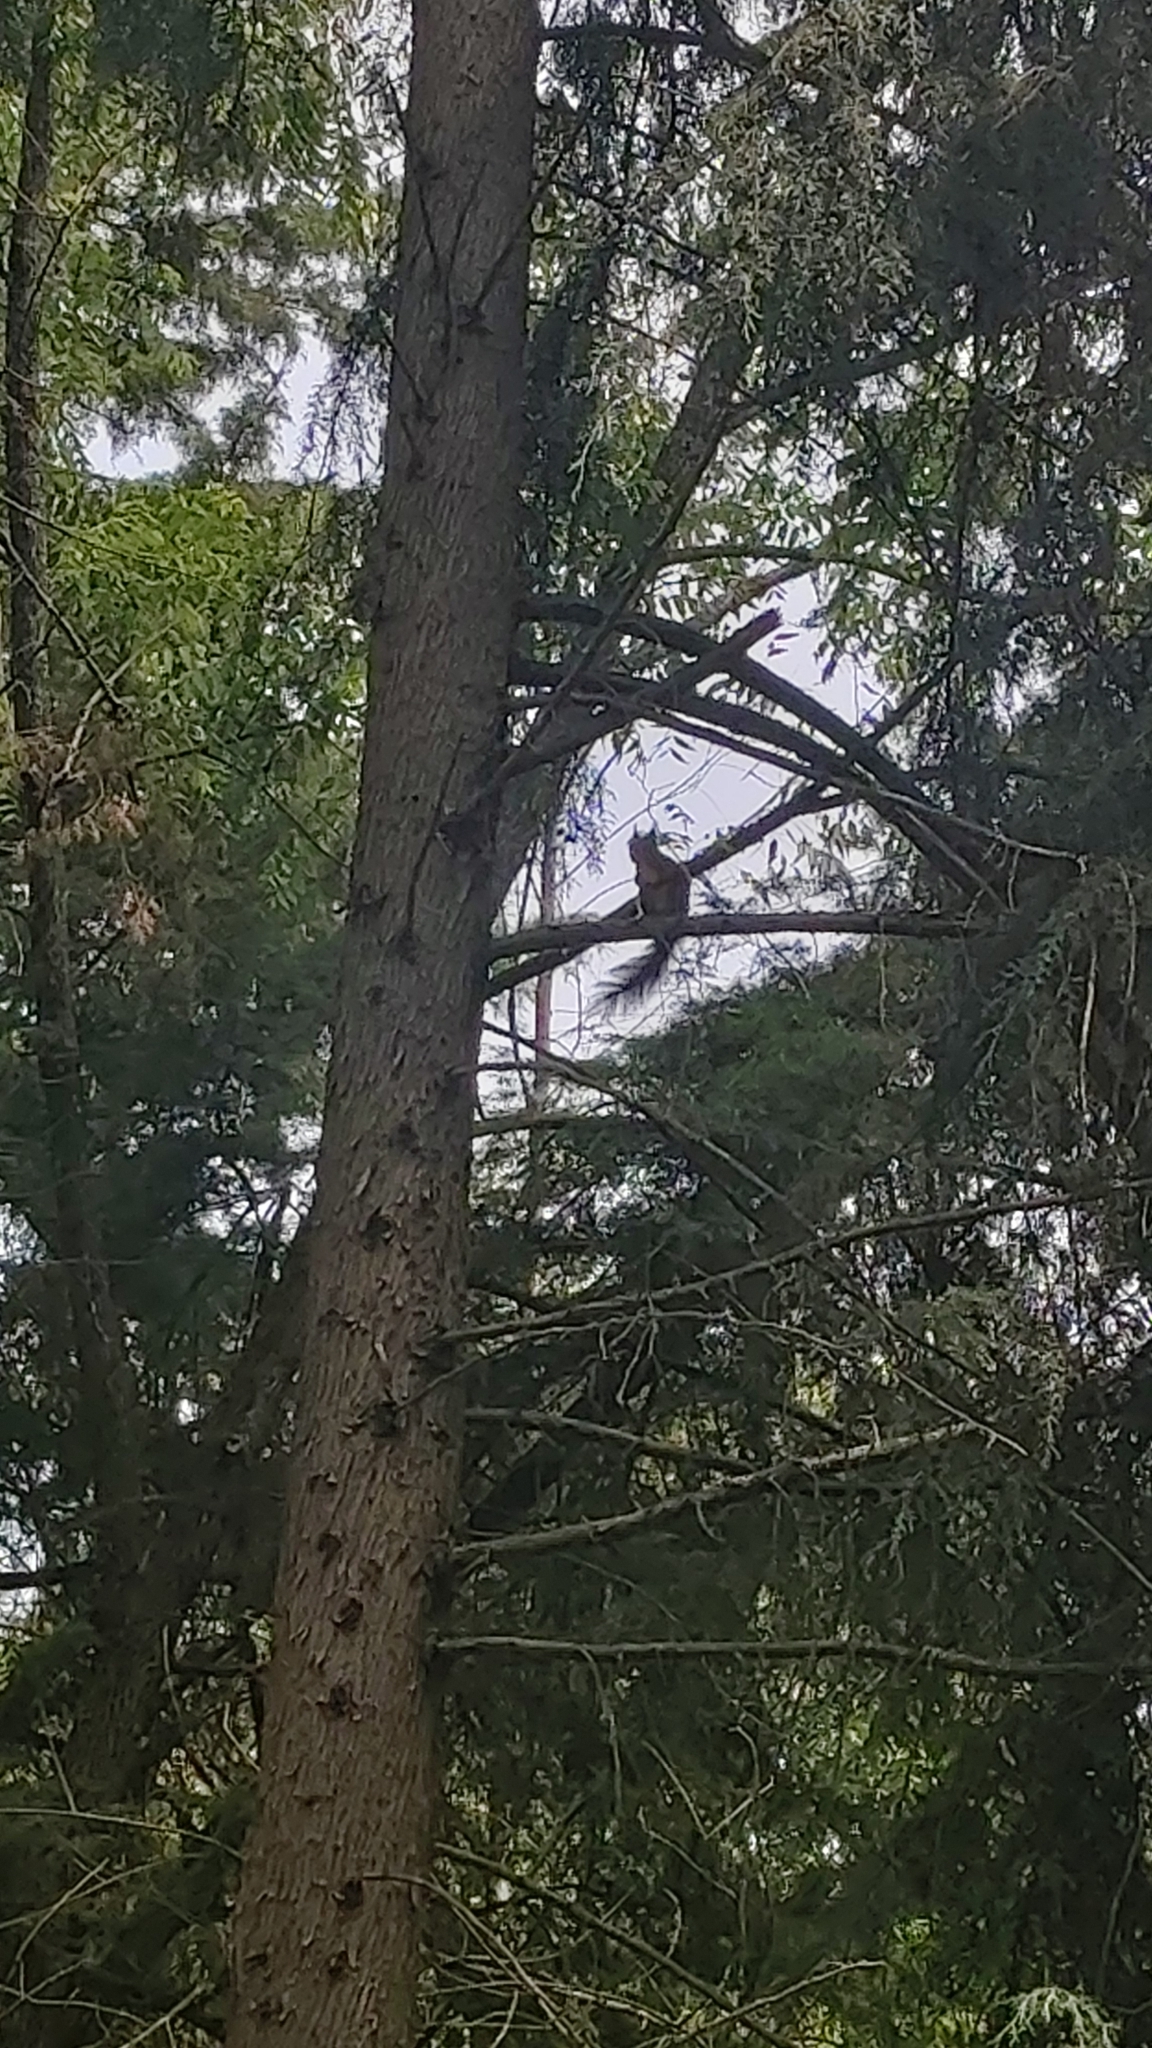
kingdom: Animalia
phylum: Chordata
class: Mammalia
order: Rodentia
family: Sciuridae
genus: Sciurus
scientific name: Sciurus vulgaris
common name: Eurasian red squirrel
